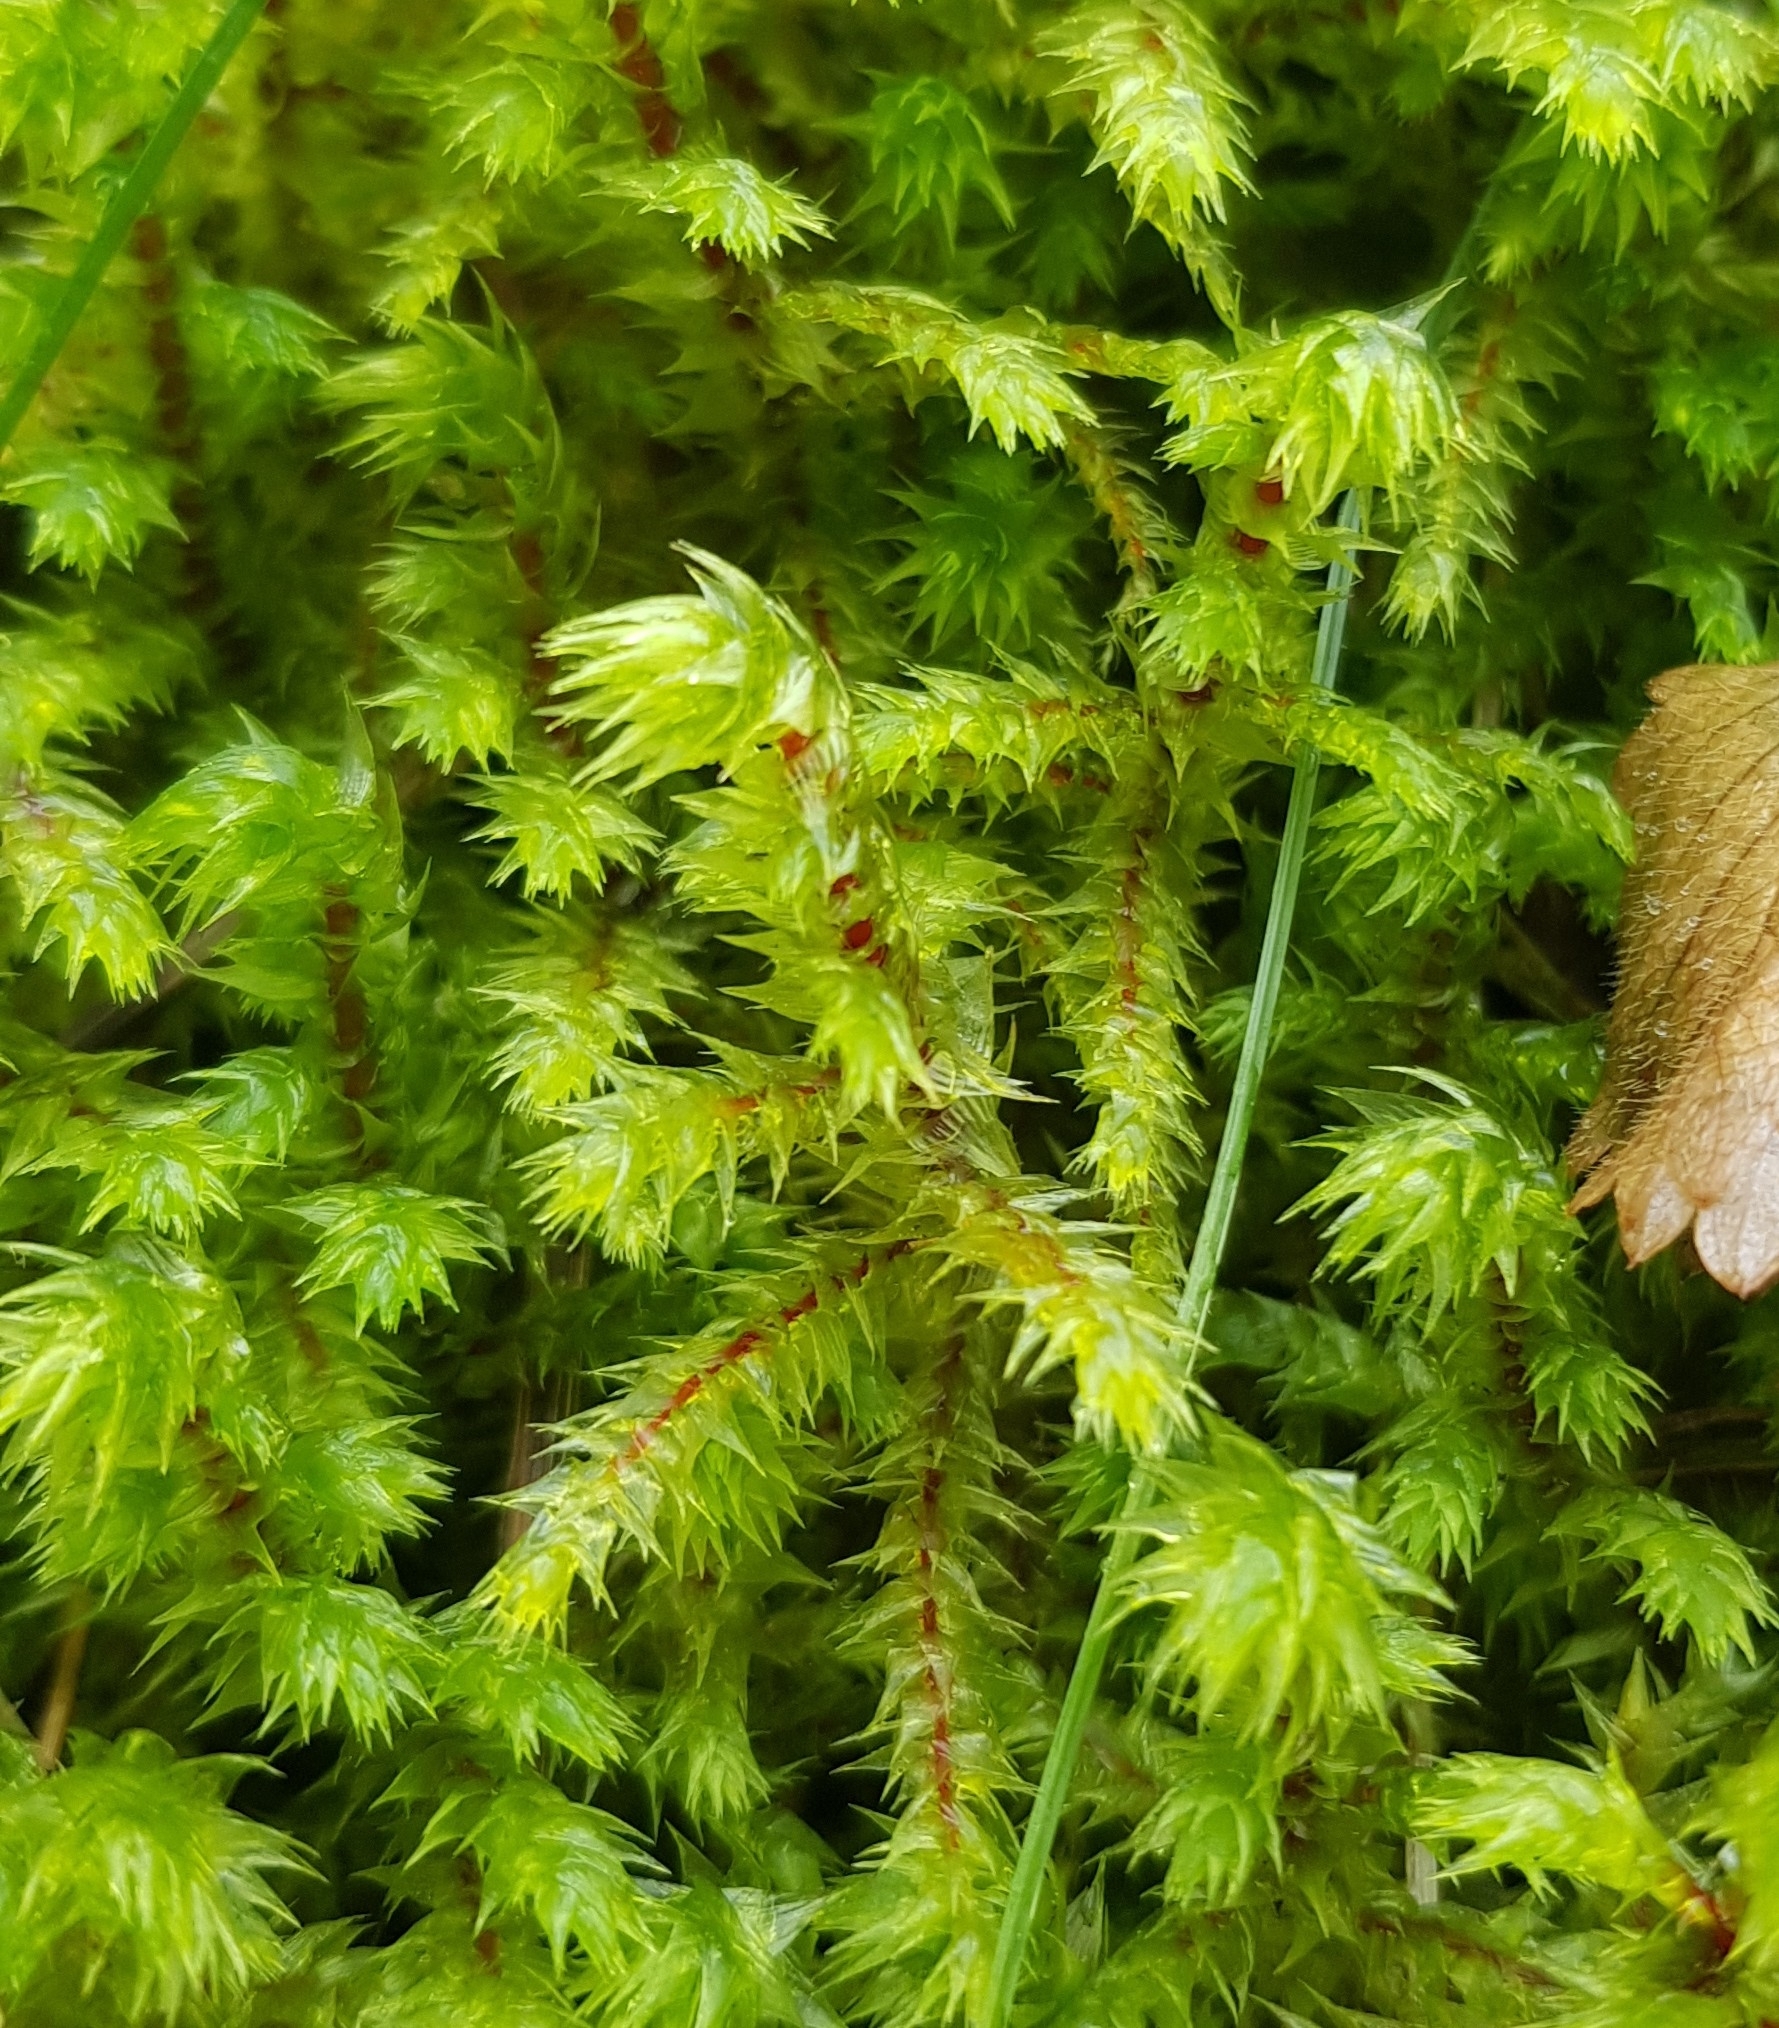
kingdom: Plantae
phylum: Bryophyta
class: Bryopsida
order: Hypnales
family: Hylocomiaceae
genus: Hylocomiadelphus
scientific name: Hylocomiadelphus triquetrus
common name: Rough goose neck moss
